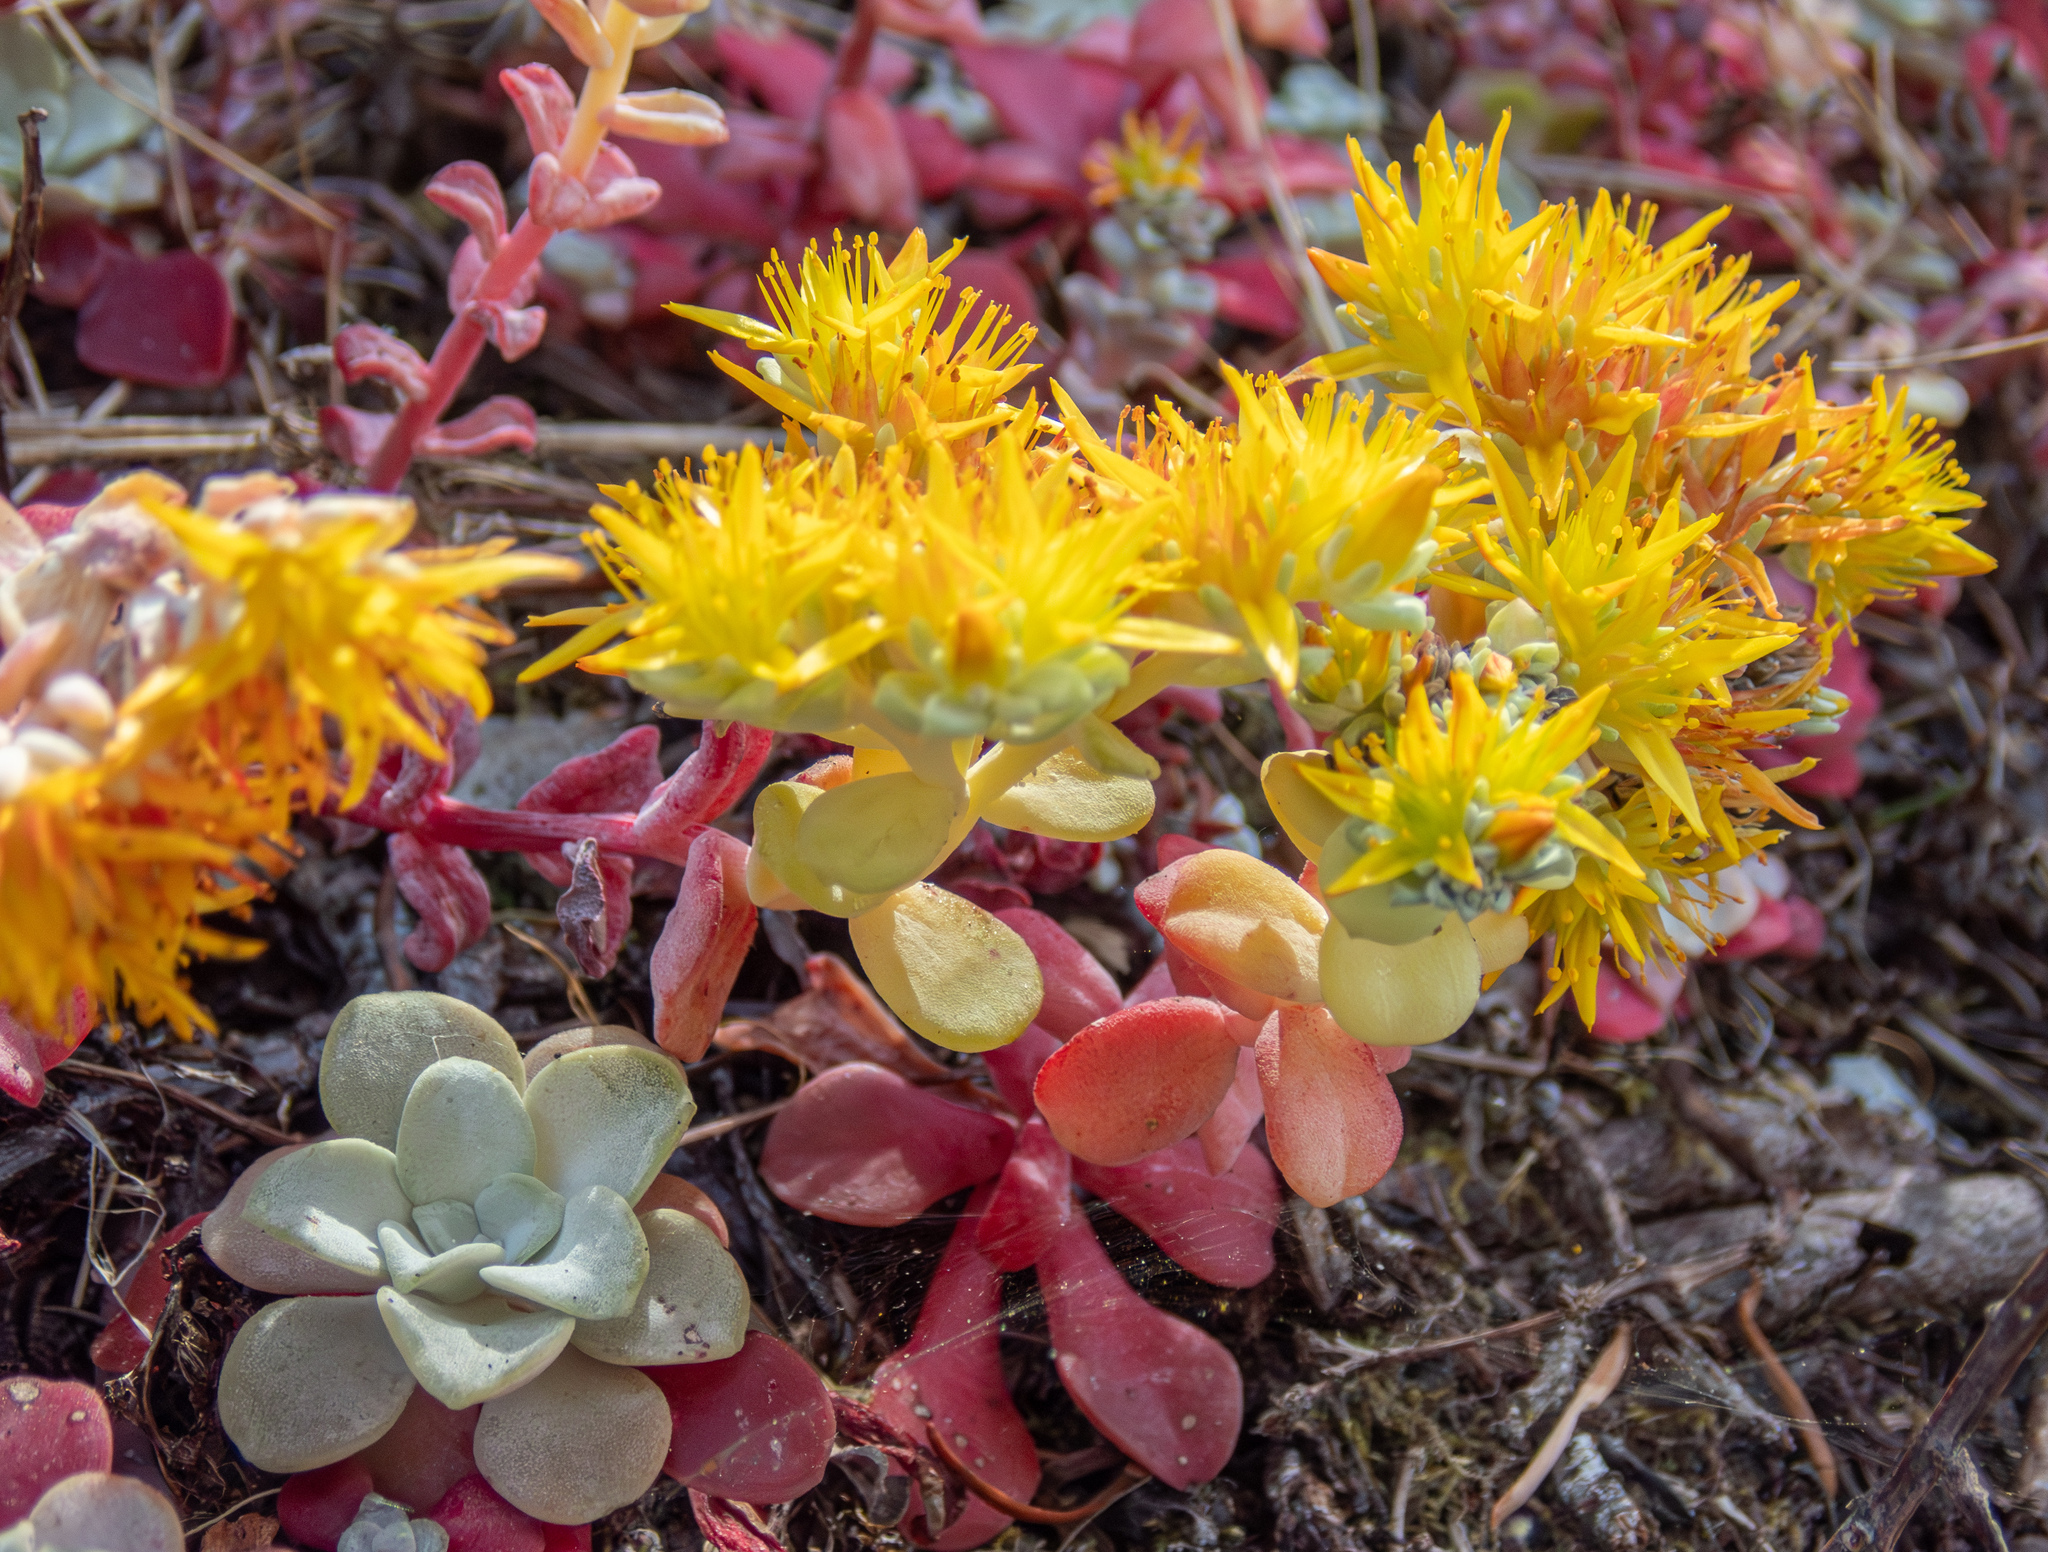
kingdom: Plantae
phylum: Tracheophyta
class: Magnoliopsida
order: Saxifragales
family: Crassulaceae
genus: Sedum
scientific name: Sedum spathulifolium
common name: Colorado stonecrop
